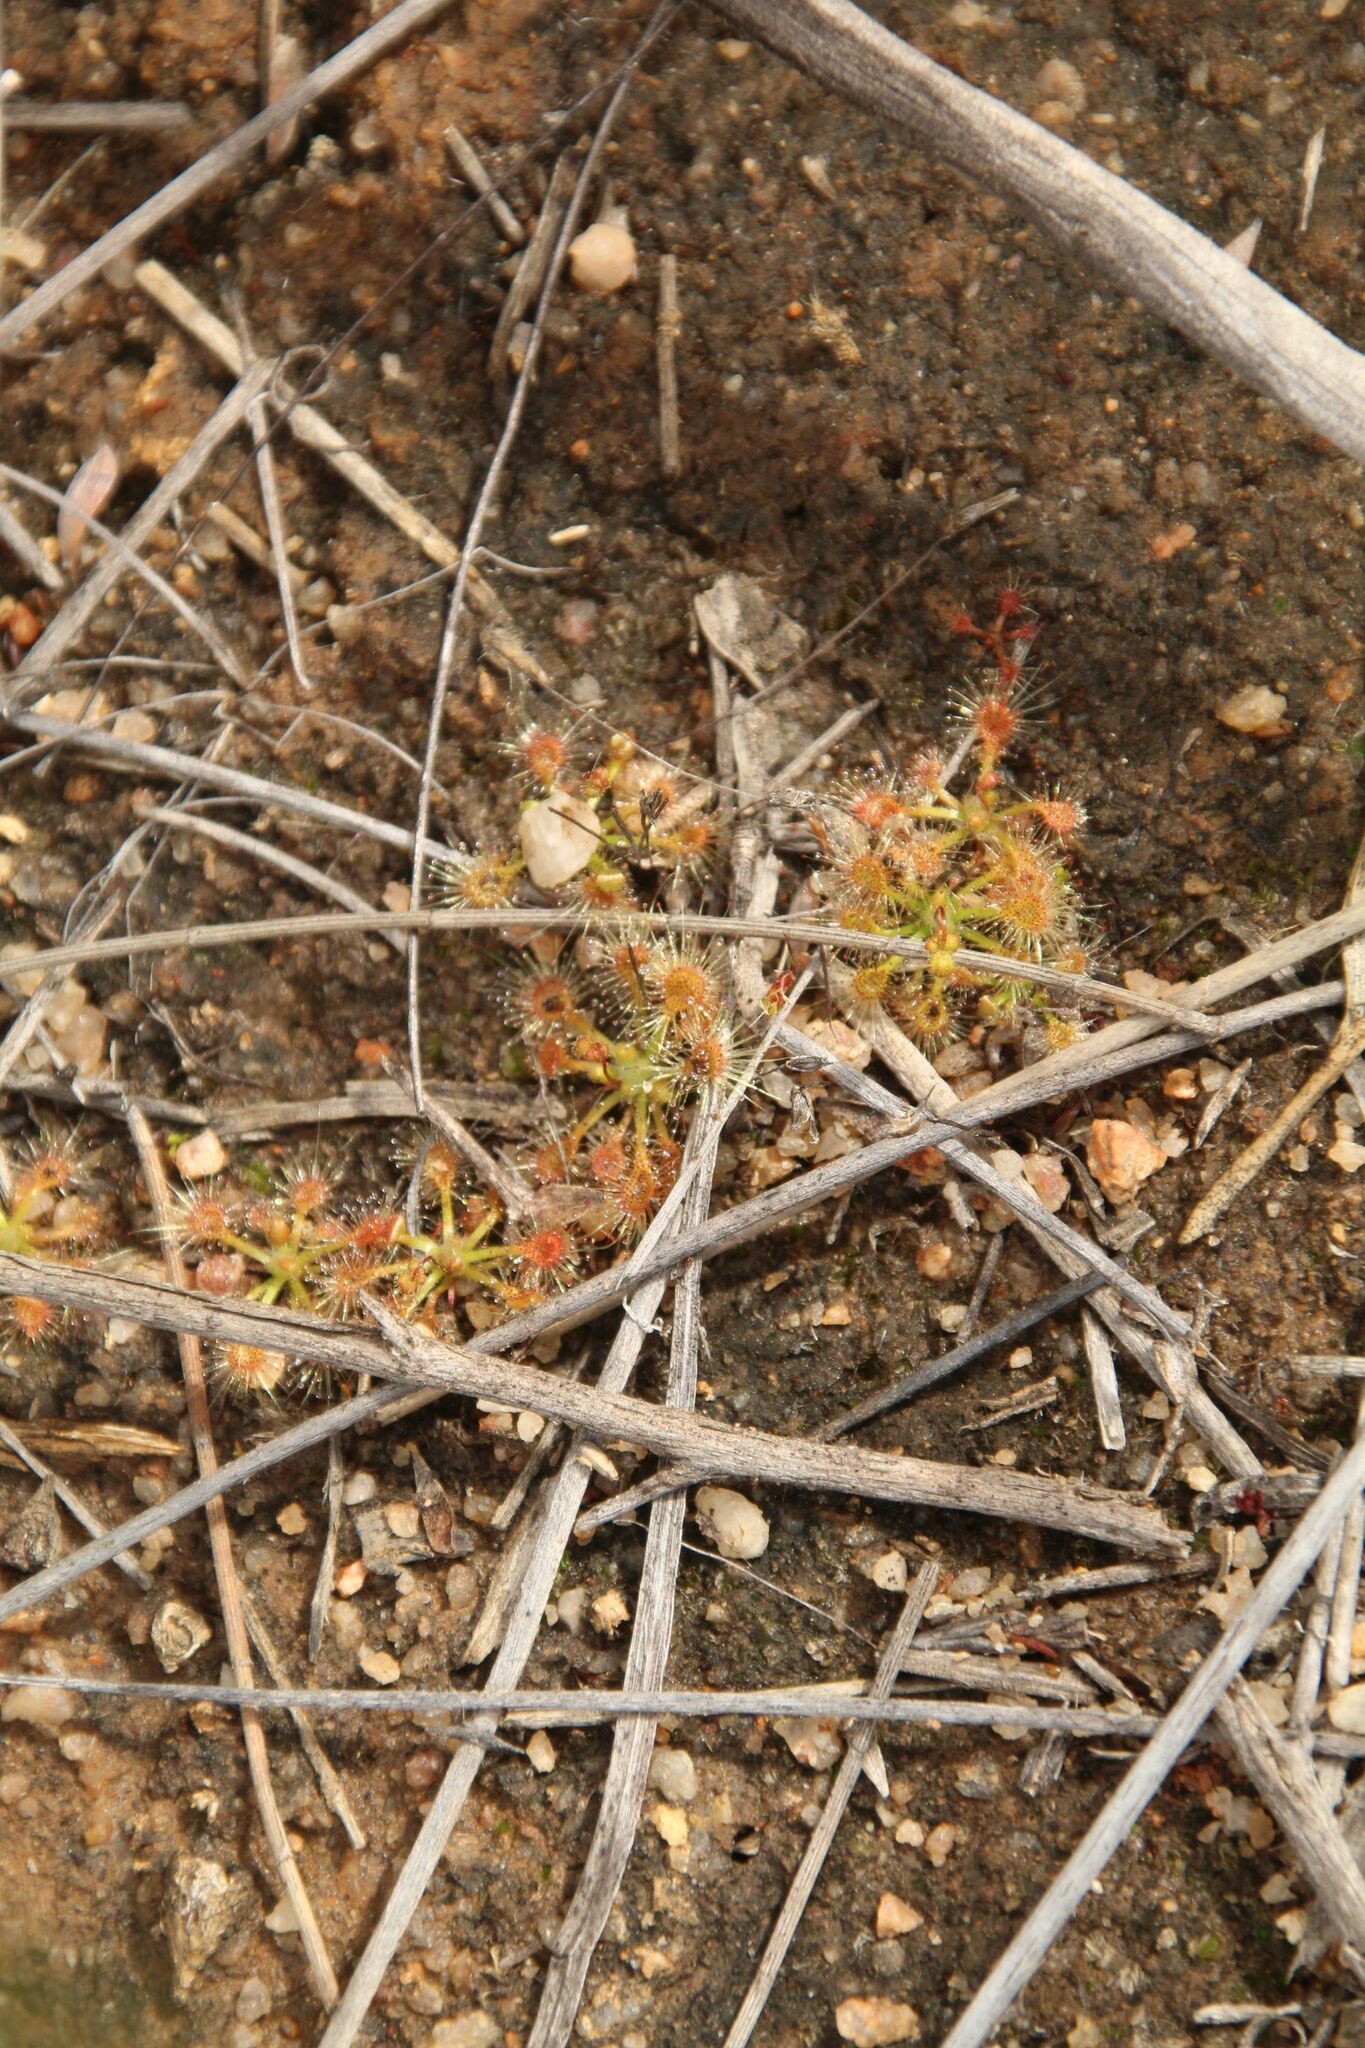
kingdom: Plantae
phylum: Tracheophyta
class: Magnoliopsida
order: Caryophyllales
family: Droseraceae
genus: Drosera
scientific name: Drosera nitidula
